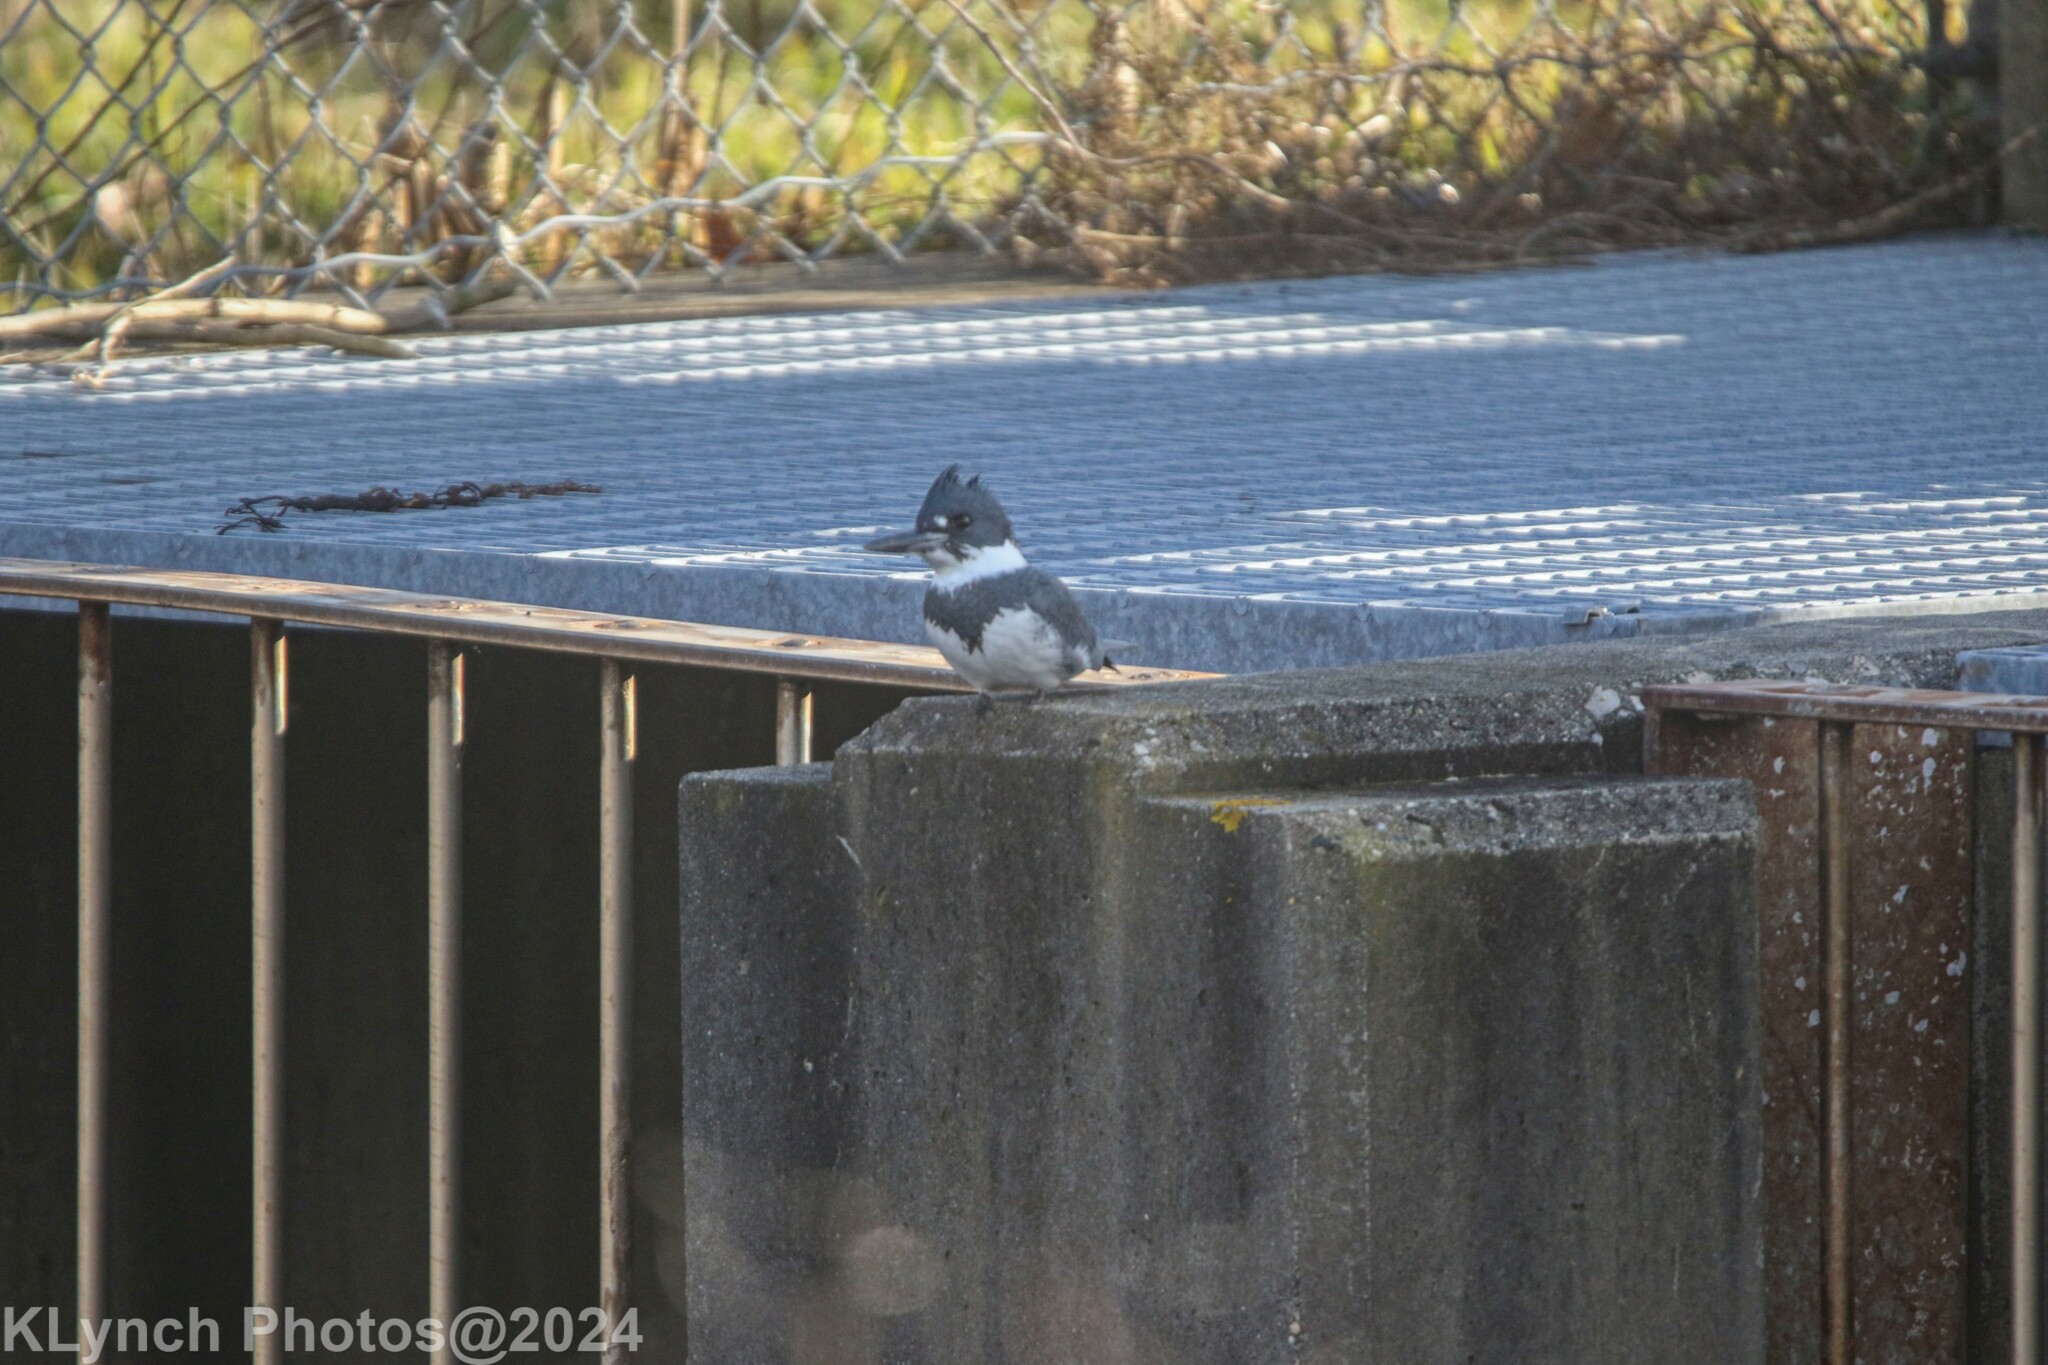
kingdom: Animalia
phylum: Chordata
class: Aves
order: Coraciiformes
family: Alcedinidae
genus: Megaceryle
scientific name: Megaceryle alcyon
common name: Belted kingfisher
